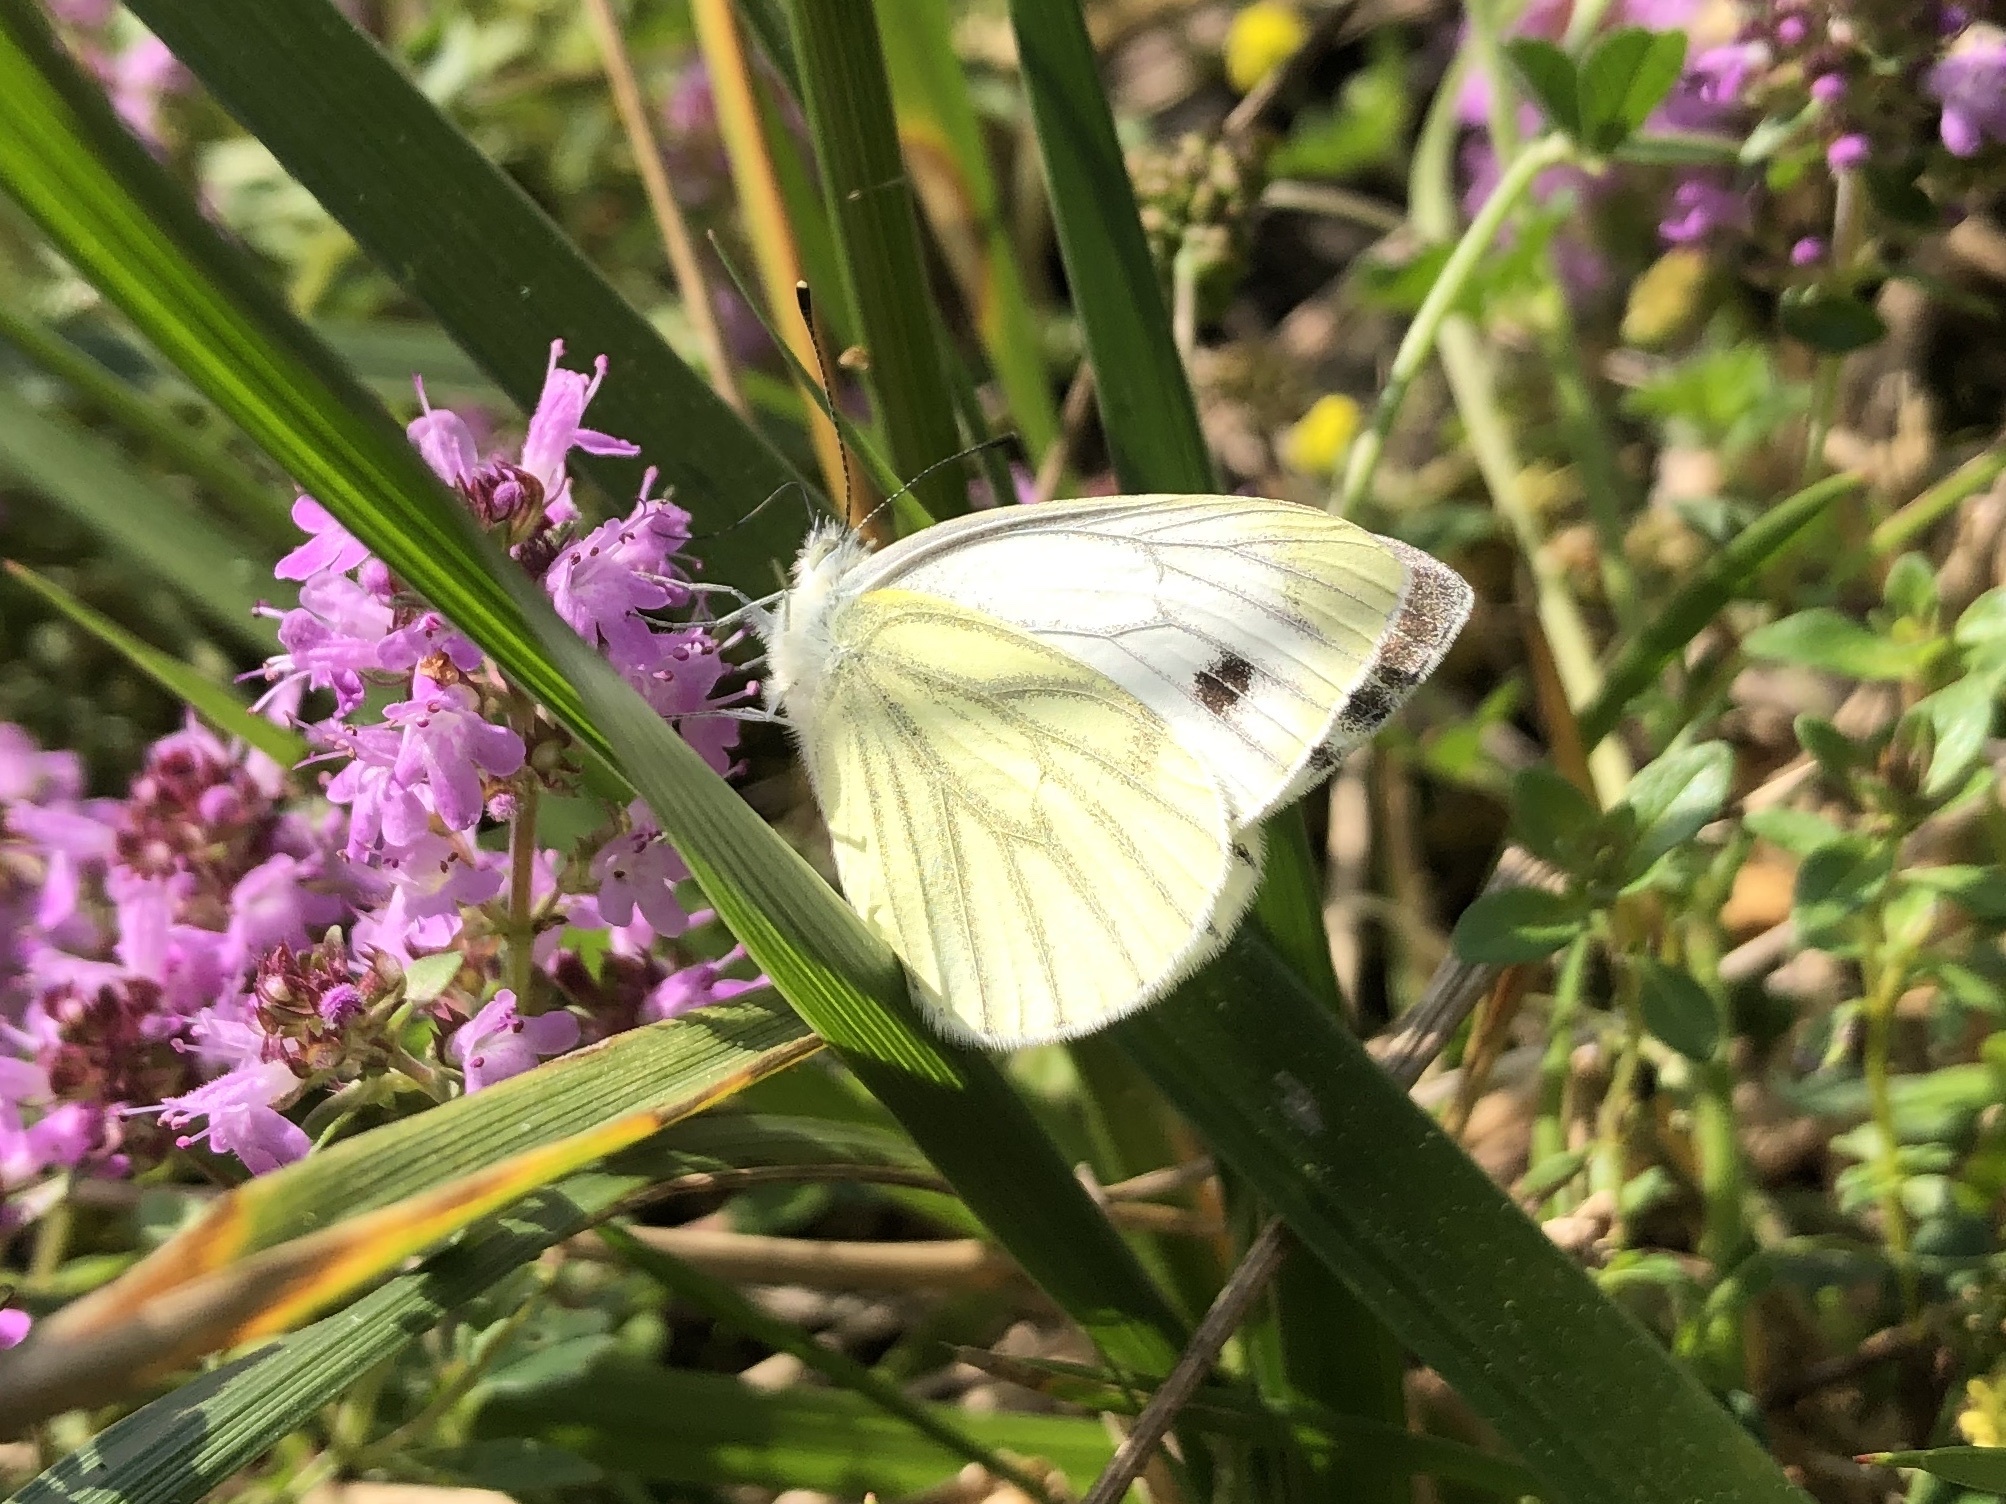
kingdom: Animalia
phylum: Arthropoda
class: Insecta
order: Lepidoptera
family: Pieridae
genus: Pieris
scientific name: Pieris napi
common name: Green-veined white
